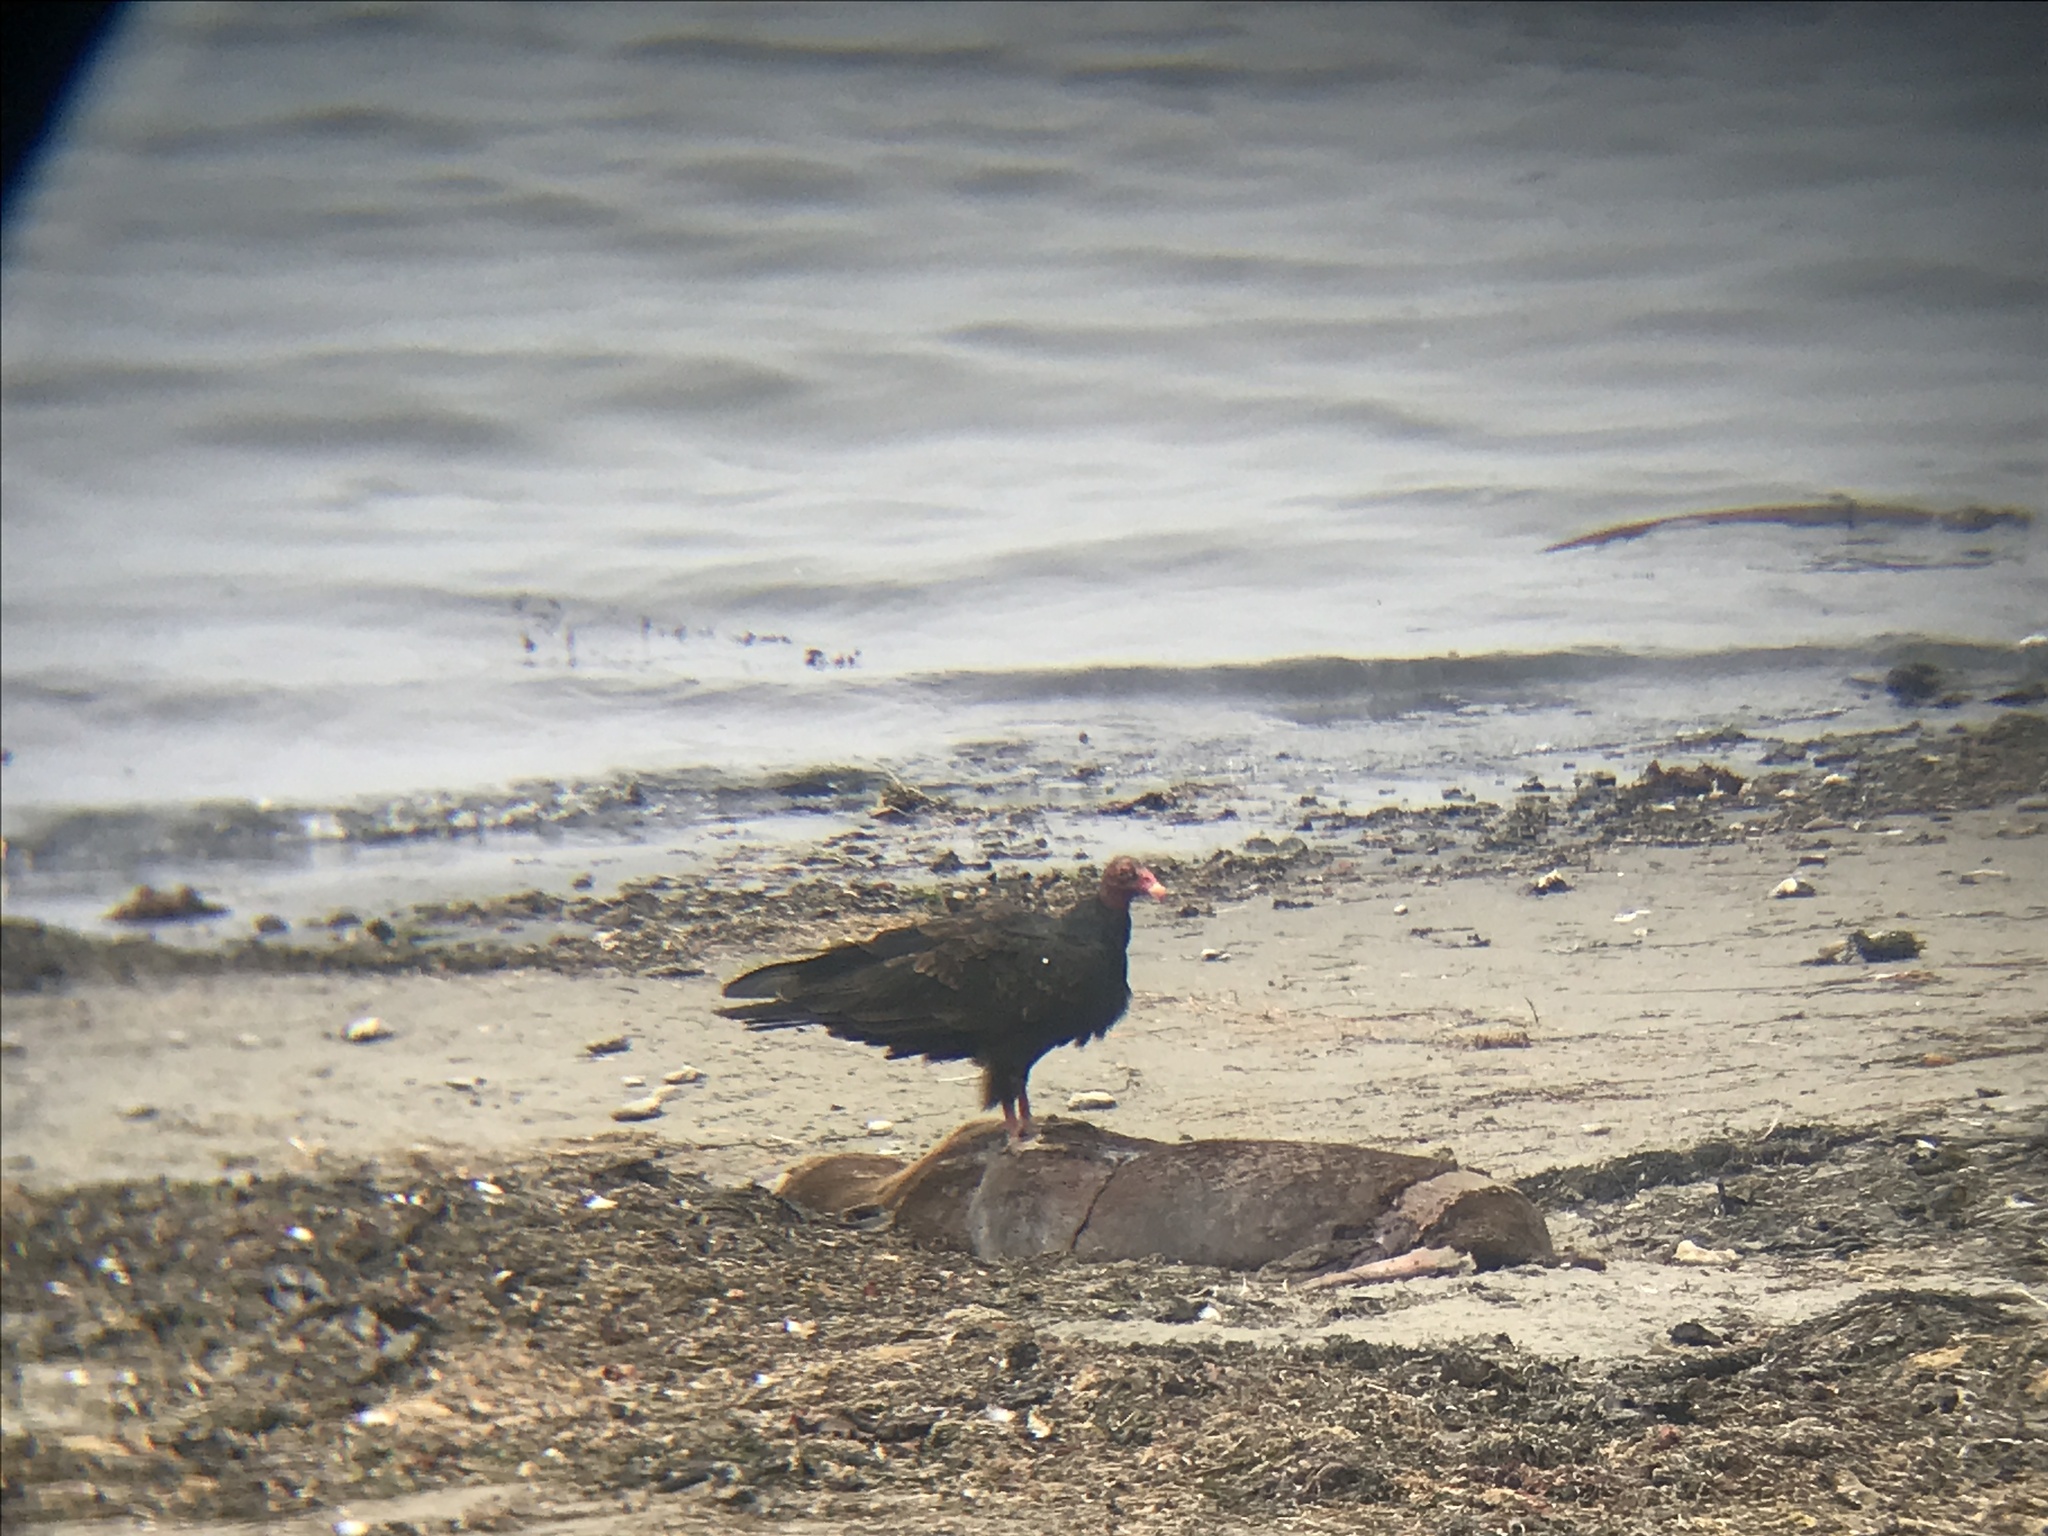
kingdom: Animalia
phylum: Chordata
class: Aves
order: Accipitriformes
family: Cathartidae
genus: Cathartes
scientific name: Cathartes aura
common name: Turkey vulture
